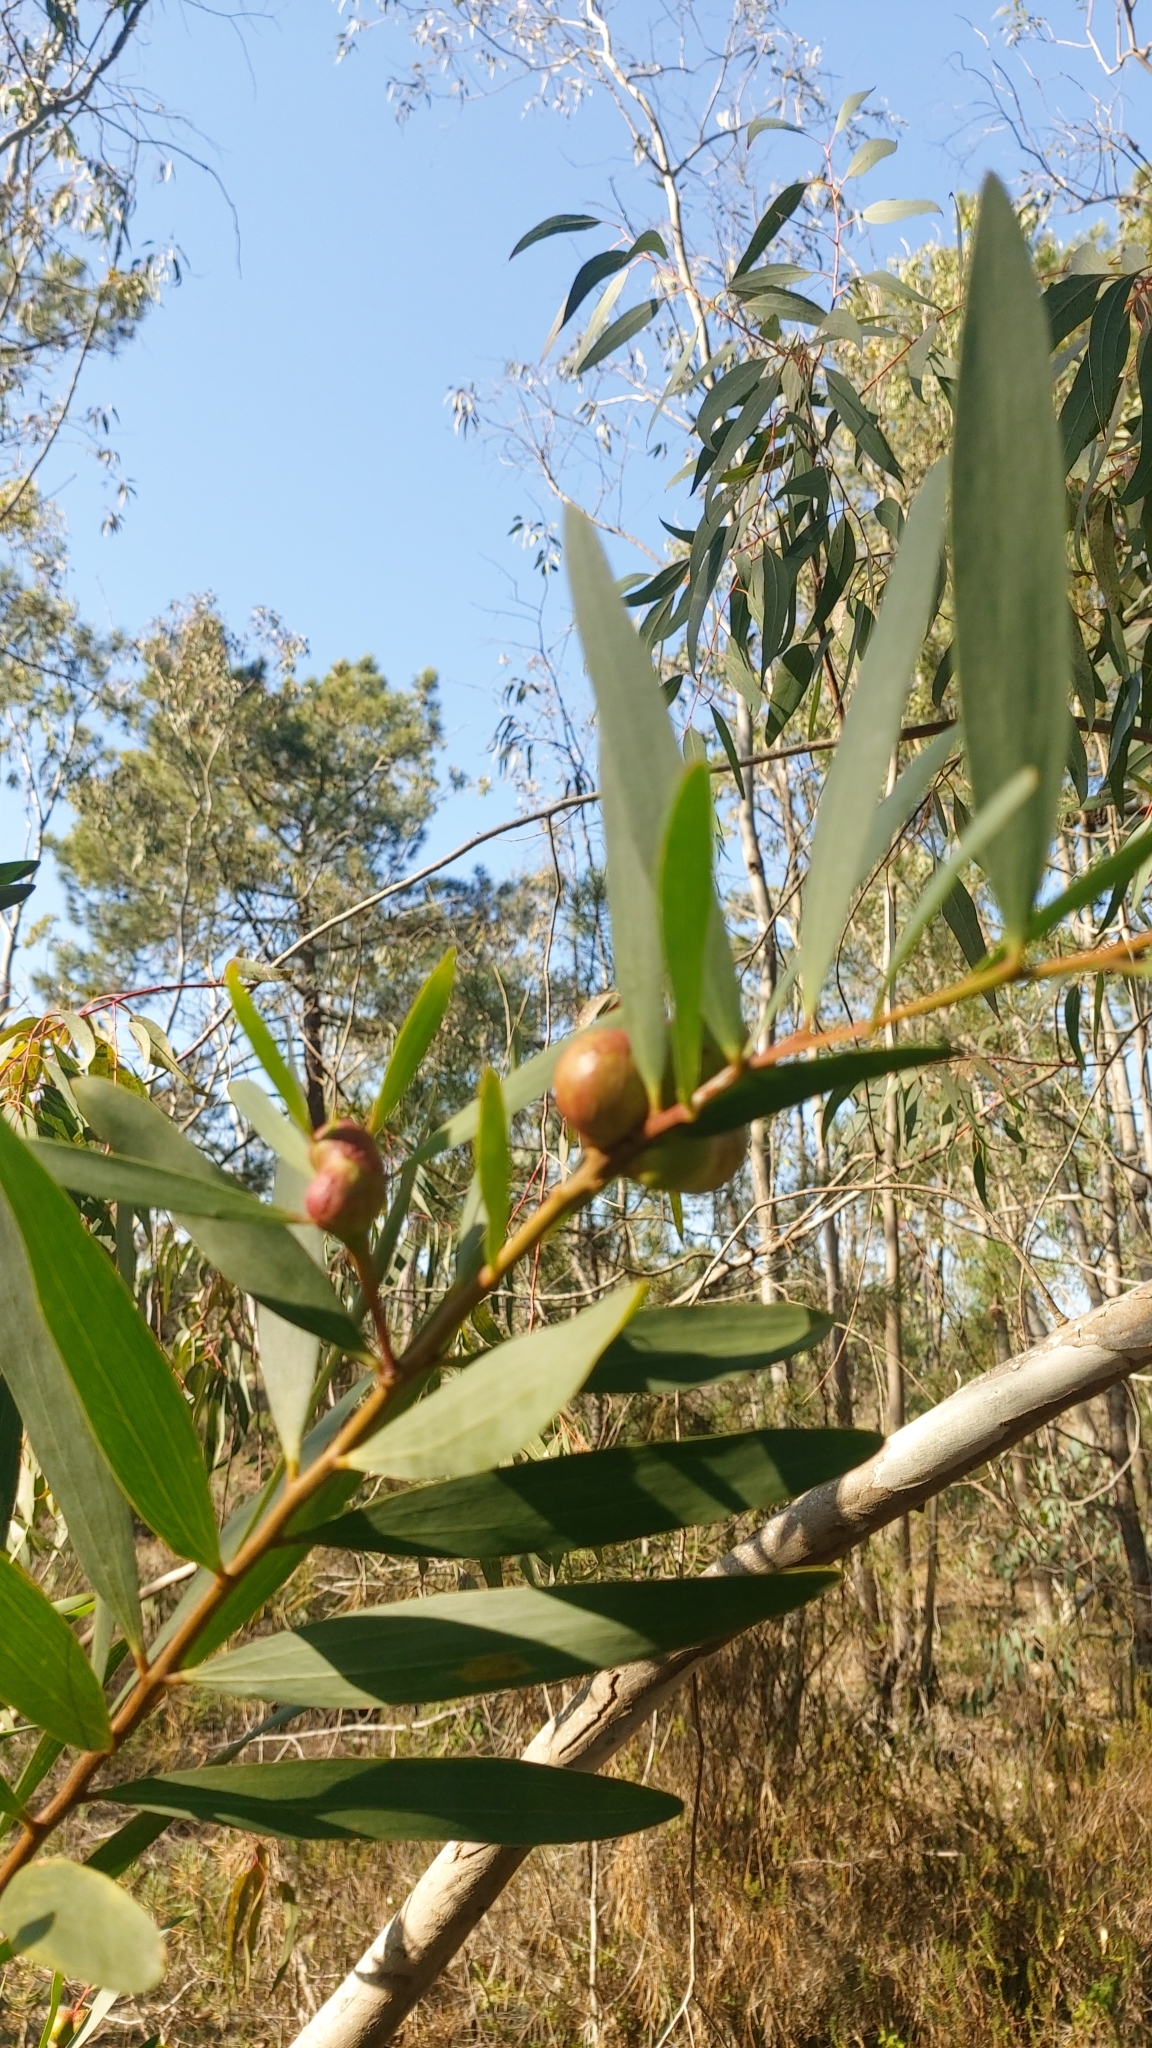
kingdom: Animalia
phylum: Arthropoda
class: Insecta
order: Hymenoptera
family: Pteromalidae
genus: Trichilogaster
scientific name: Trichilogaster acaciaelongifoliae
